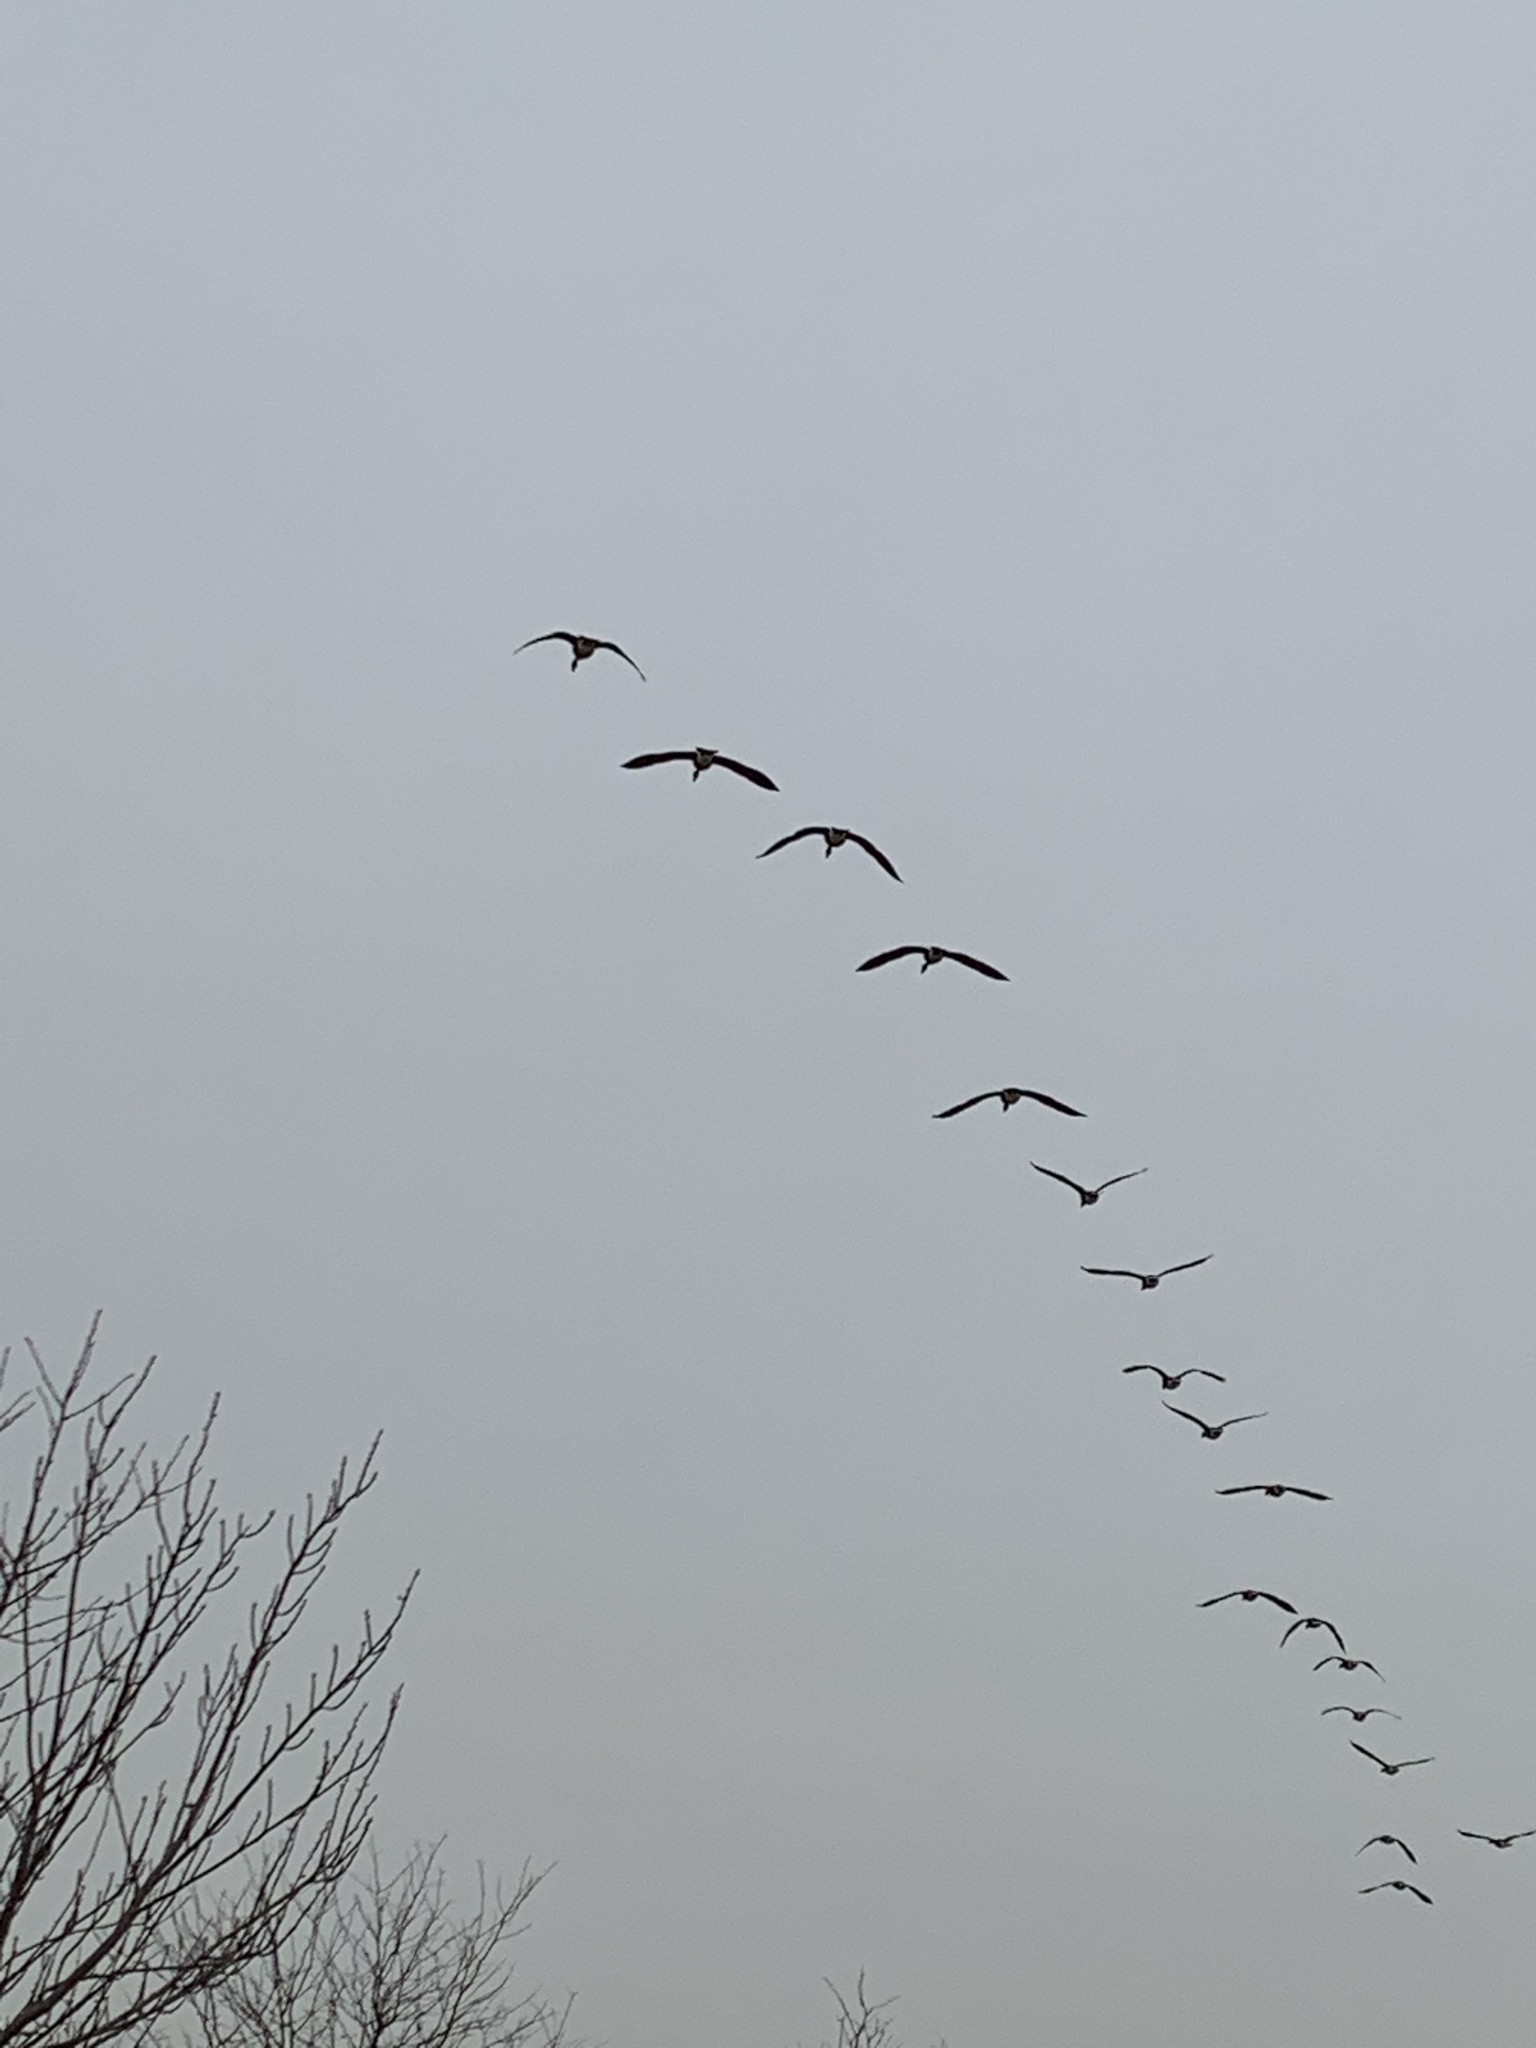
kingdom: Animalia
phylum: Chordata
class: Aves
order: Anseriformes
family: Anatidae
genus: Branta
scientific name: Branta canadensis
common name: Canada goose
